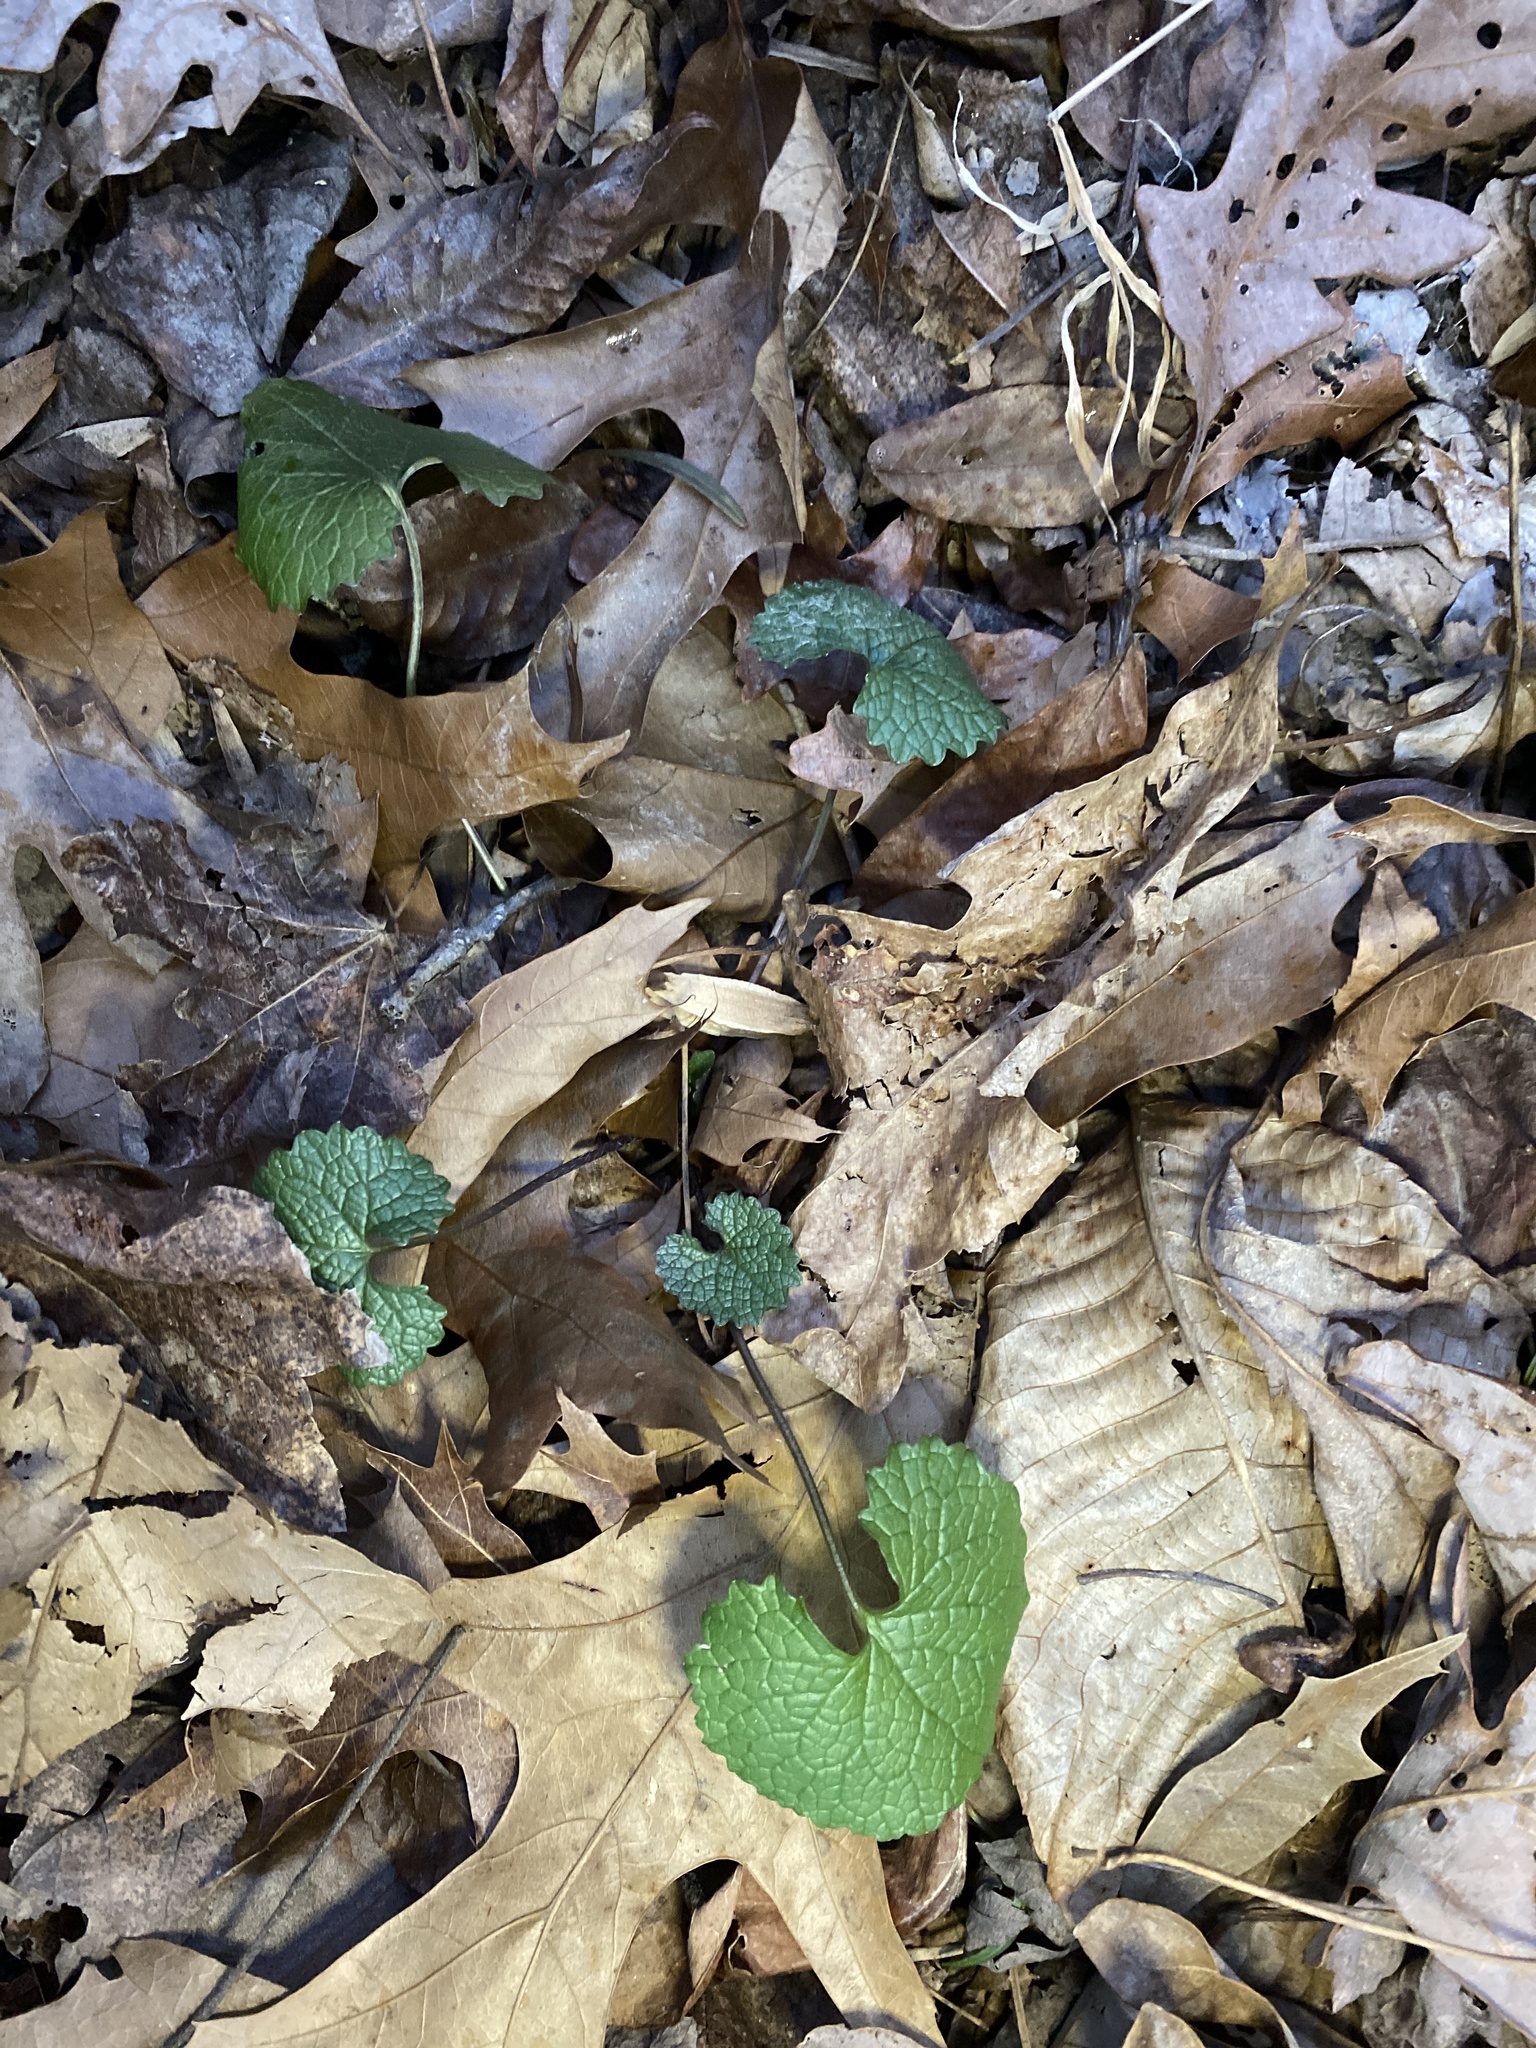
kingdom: Plantae
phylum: Tracheophyta
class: Magnoliopsida
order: Brassicales
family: Brassicaceae
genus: Alliaria
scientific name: Alliaria petiolata
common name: Garlic mustard
